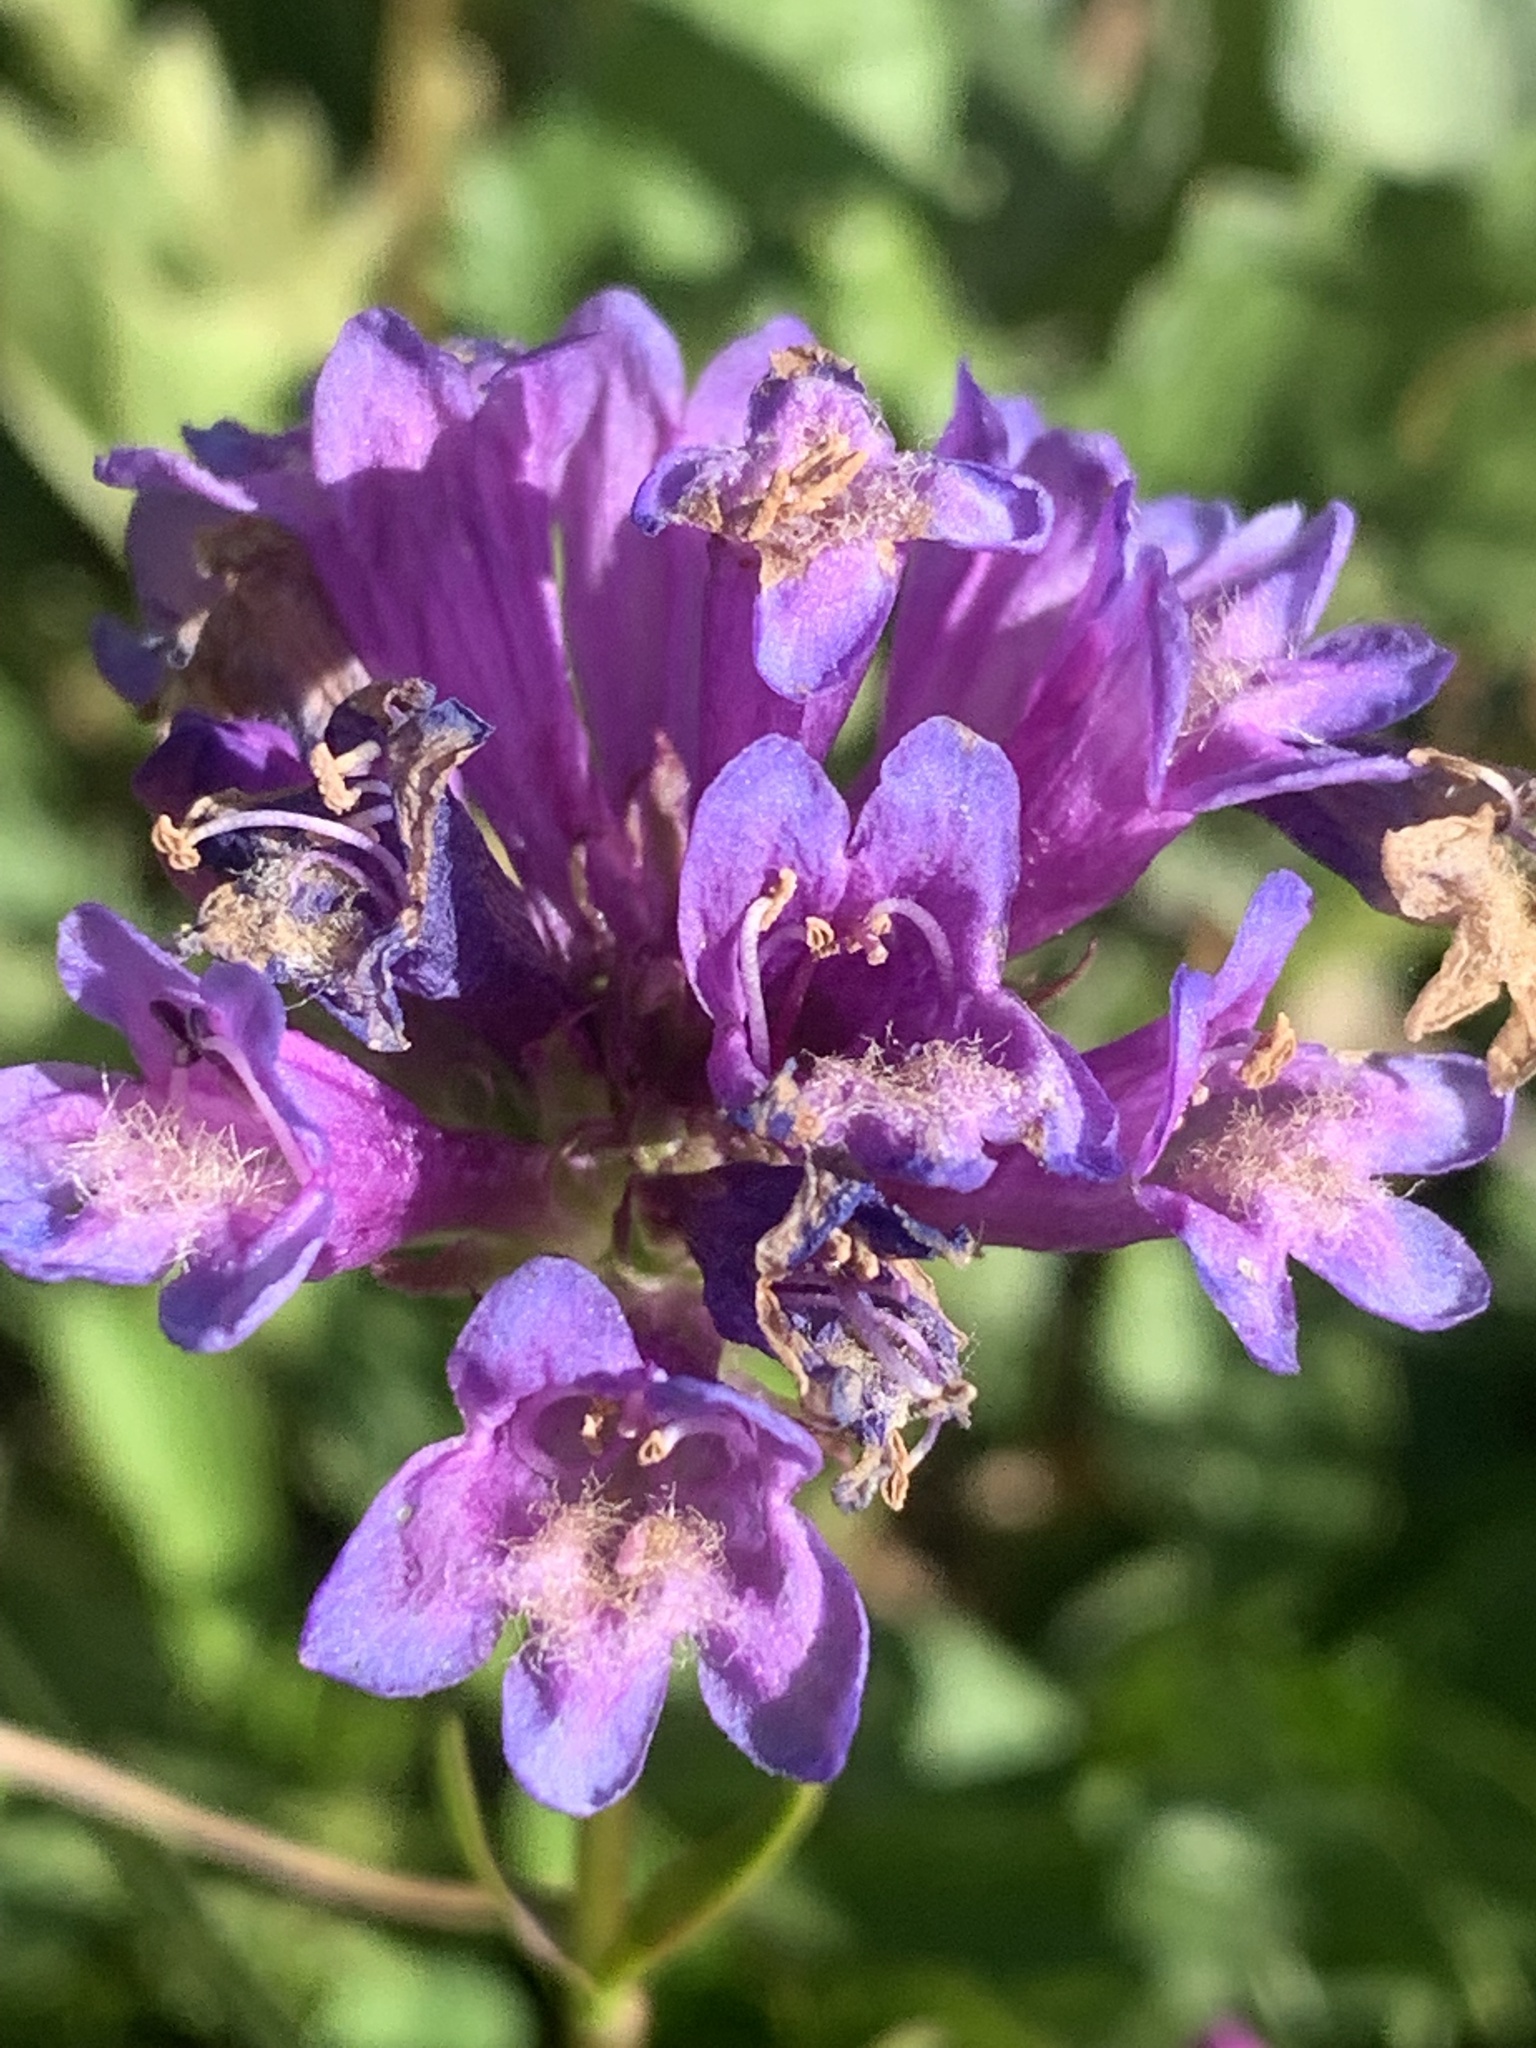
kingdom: Plantae
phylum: Tracheophyta
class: Magnoliopsida
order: Lamiales
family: Plantaginaceae
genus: Penstemon
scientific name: Penstemon rydbergii
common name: Rydberg's beardtongue
